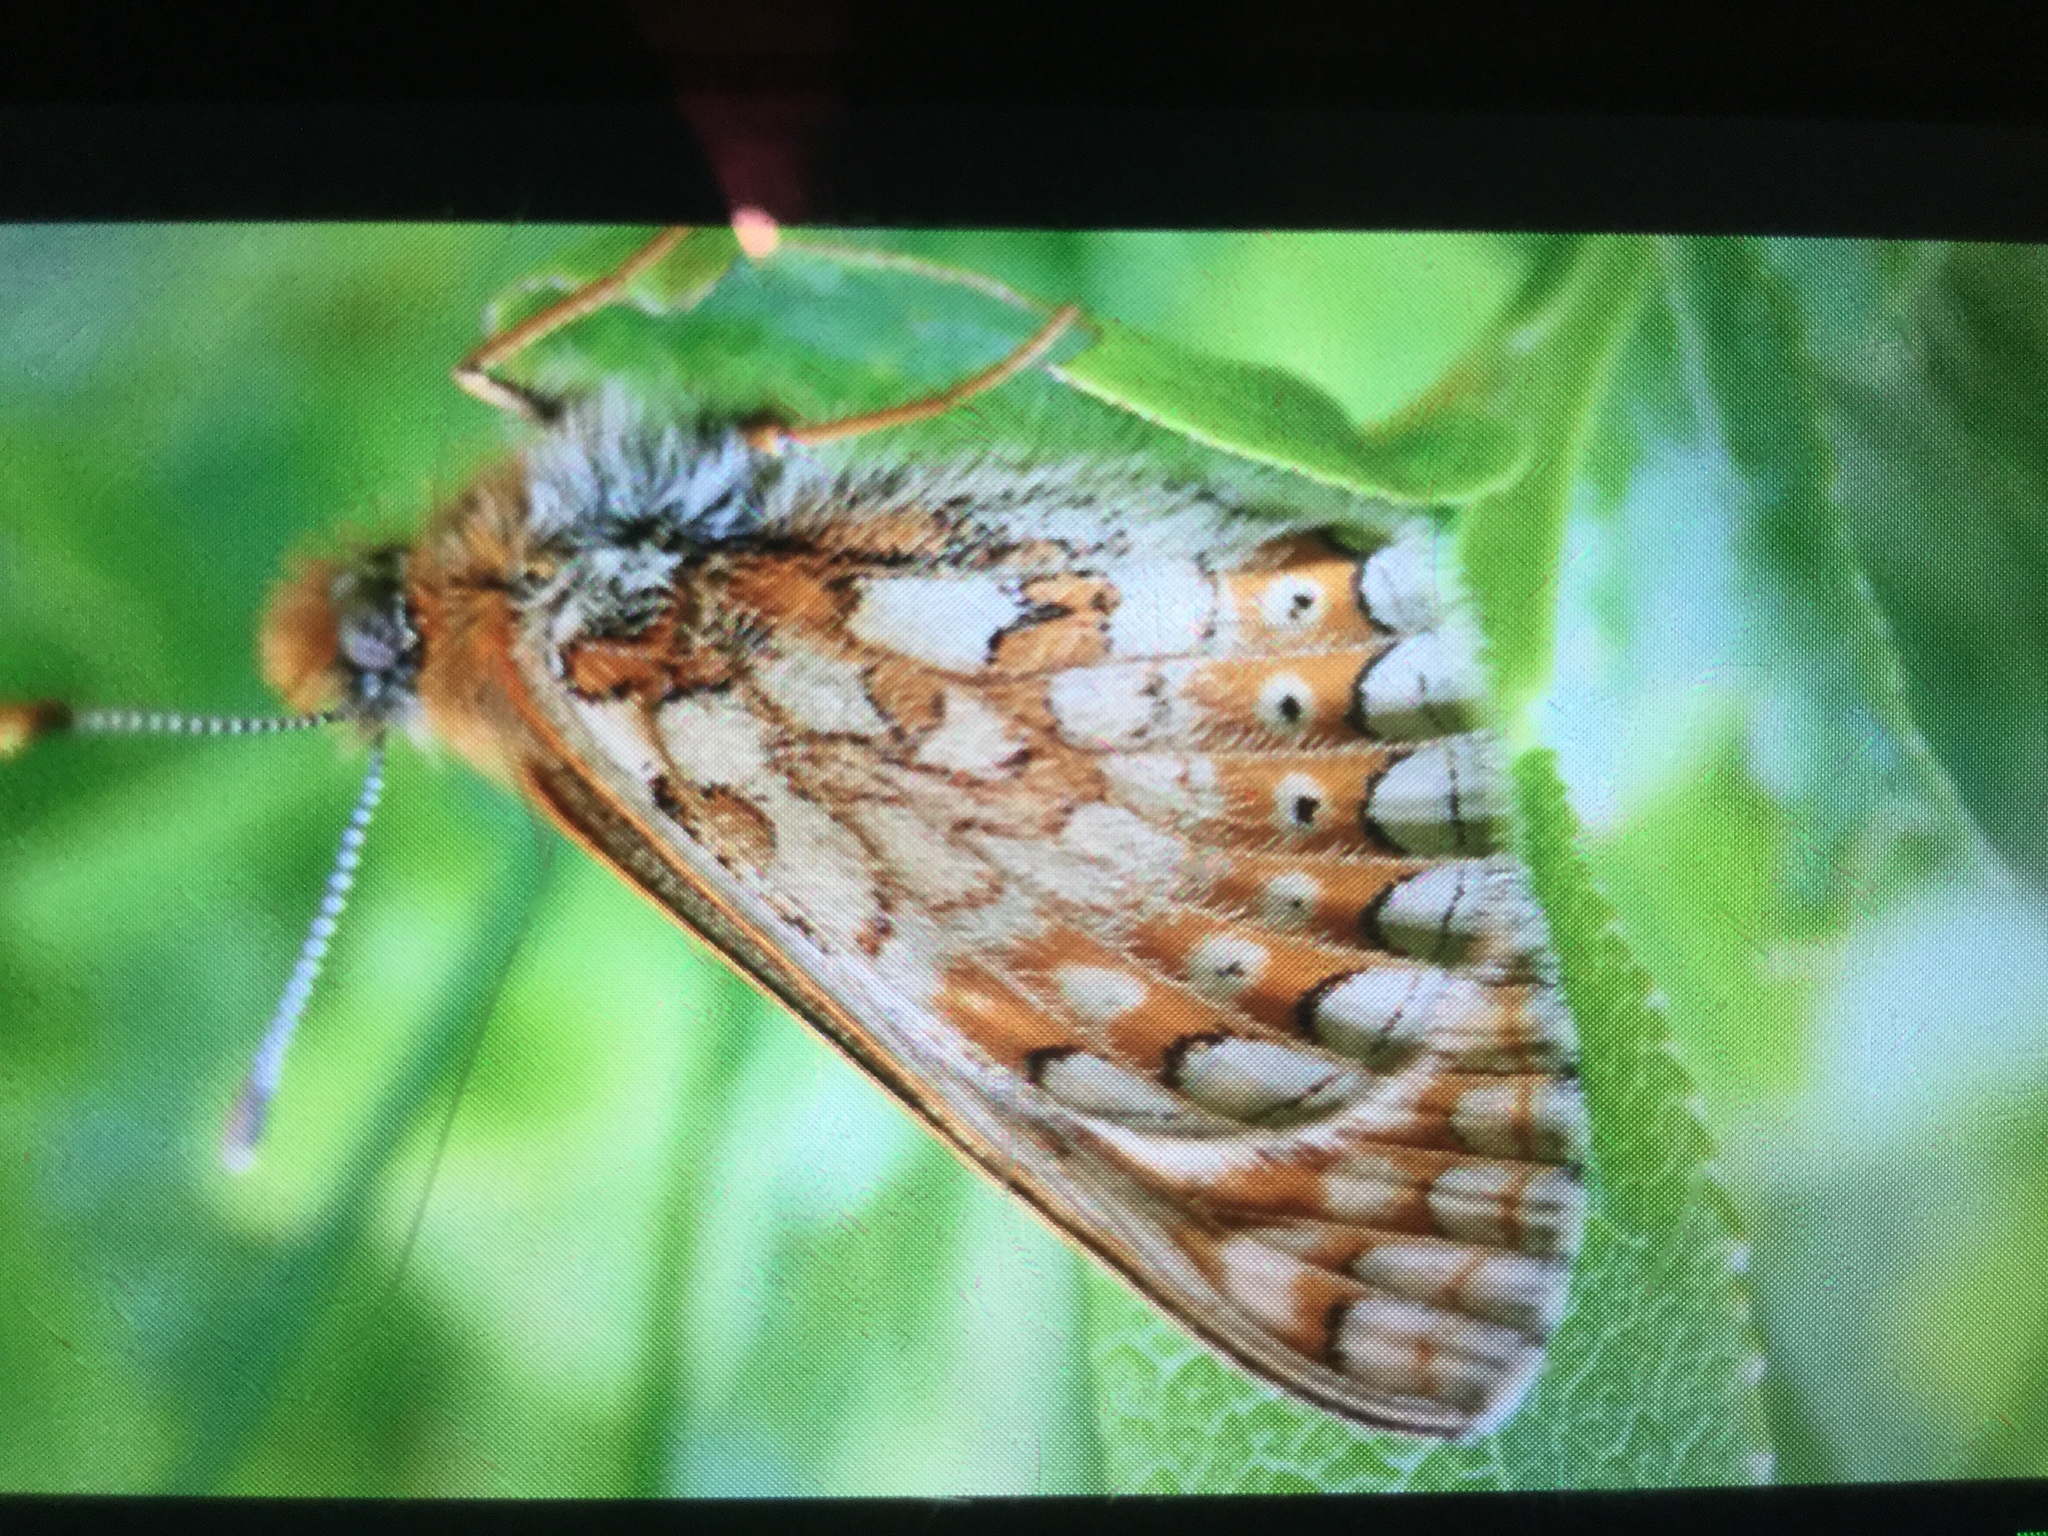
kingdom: Animalia
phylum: Arthropoda
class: Insecta
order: Lepidoptera
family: Nymphalidae
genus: Euphydryas
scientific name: Euphydryas aurinia
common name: Marsh fritillary
